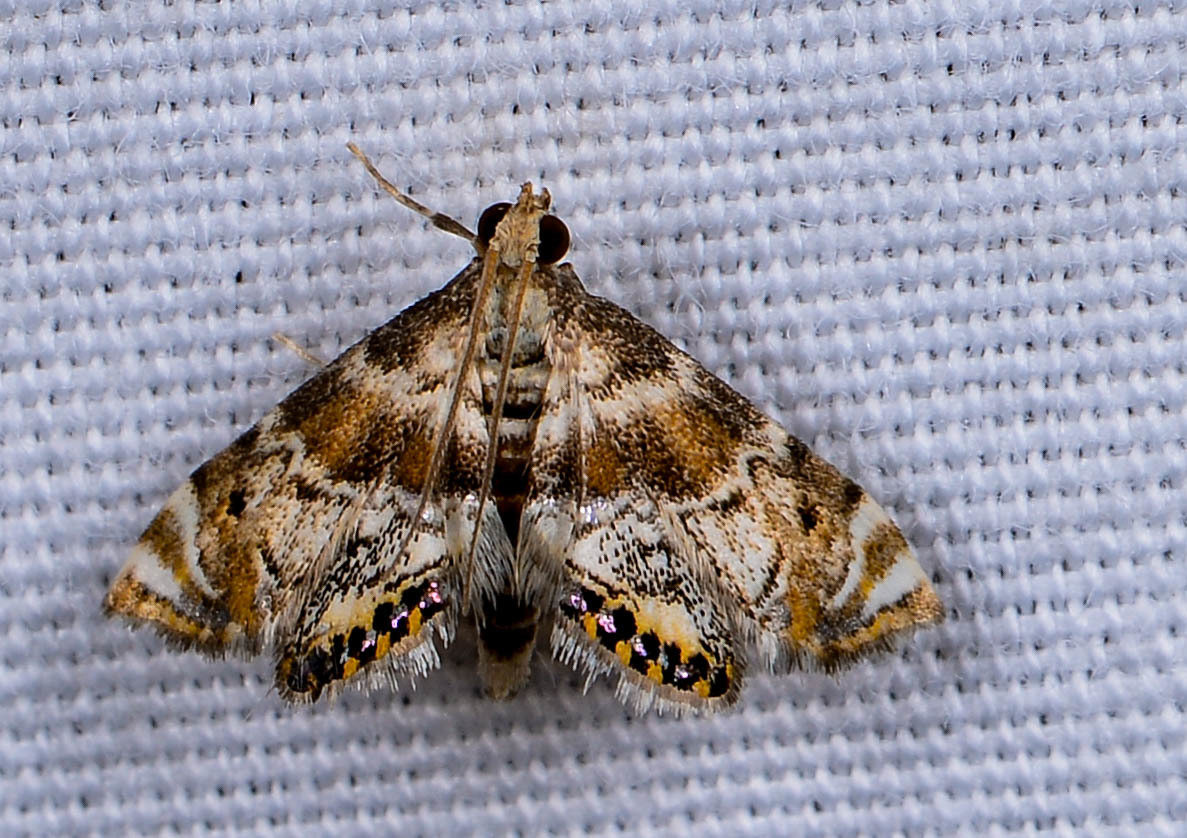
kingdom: Animalia
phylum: Arthropoda
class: Insecta
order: Lepidoptera
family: Crambidae
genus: Petrophila
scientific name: Petrophila fulicalis
